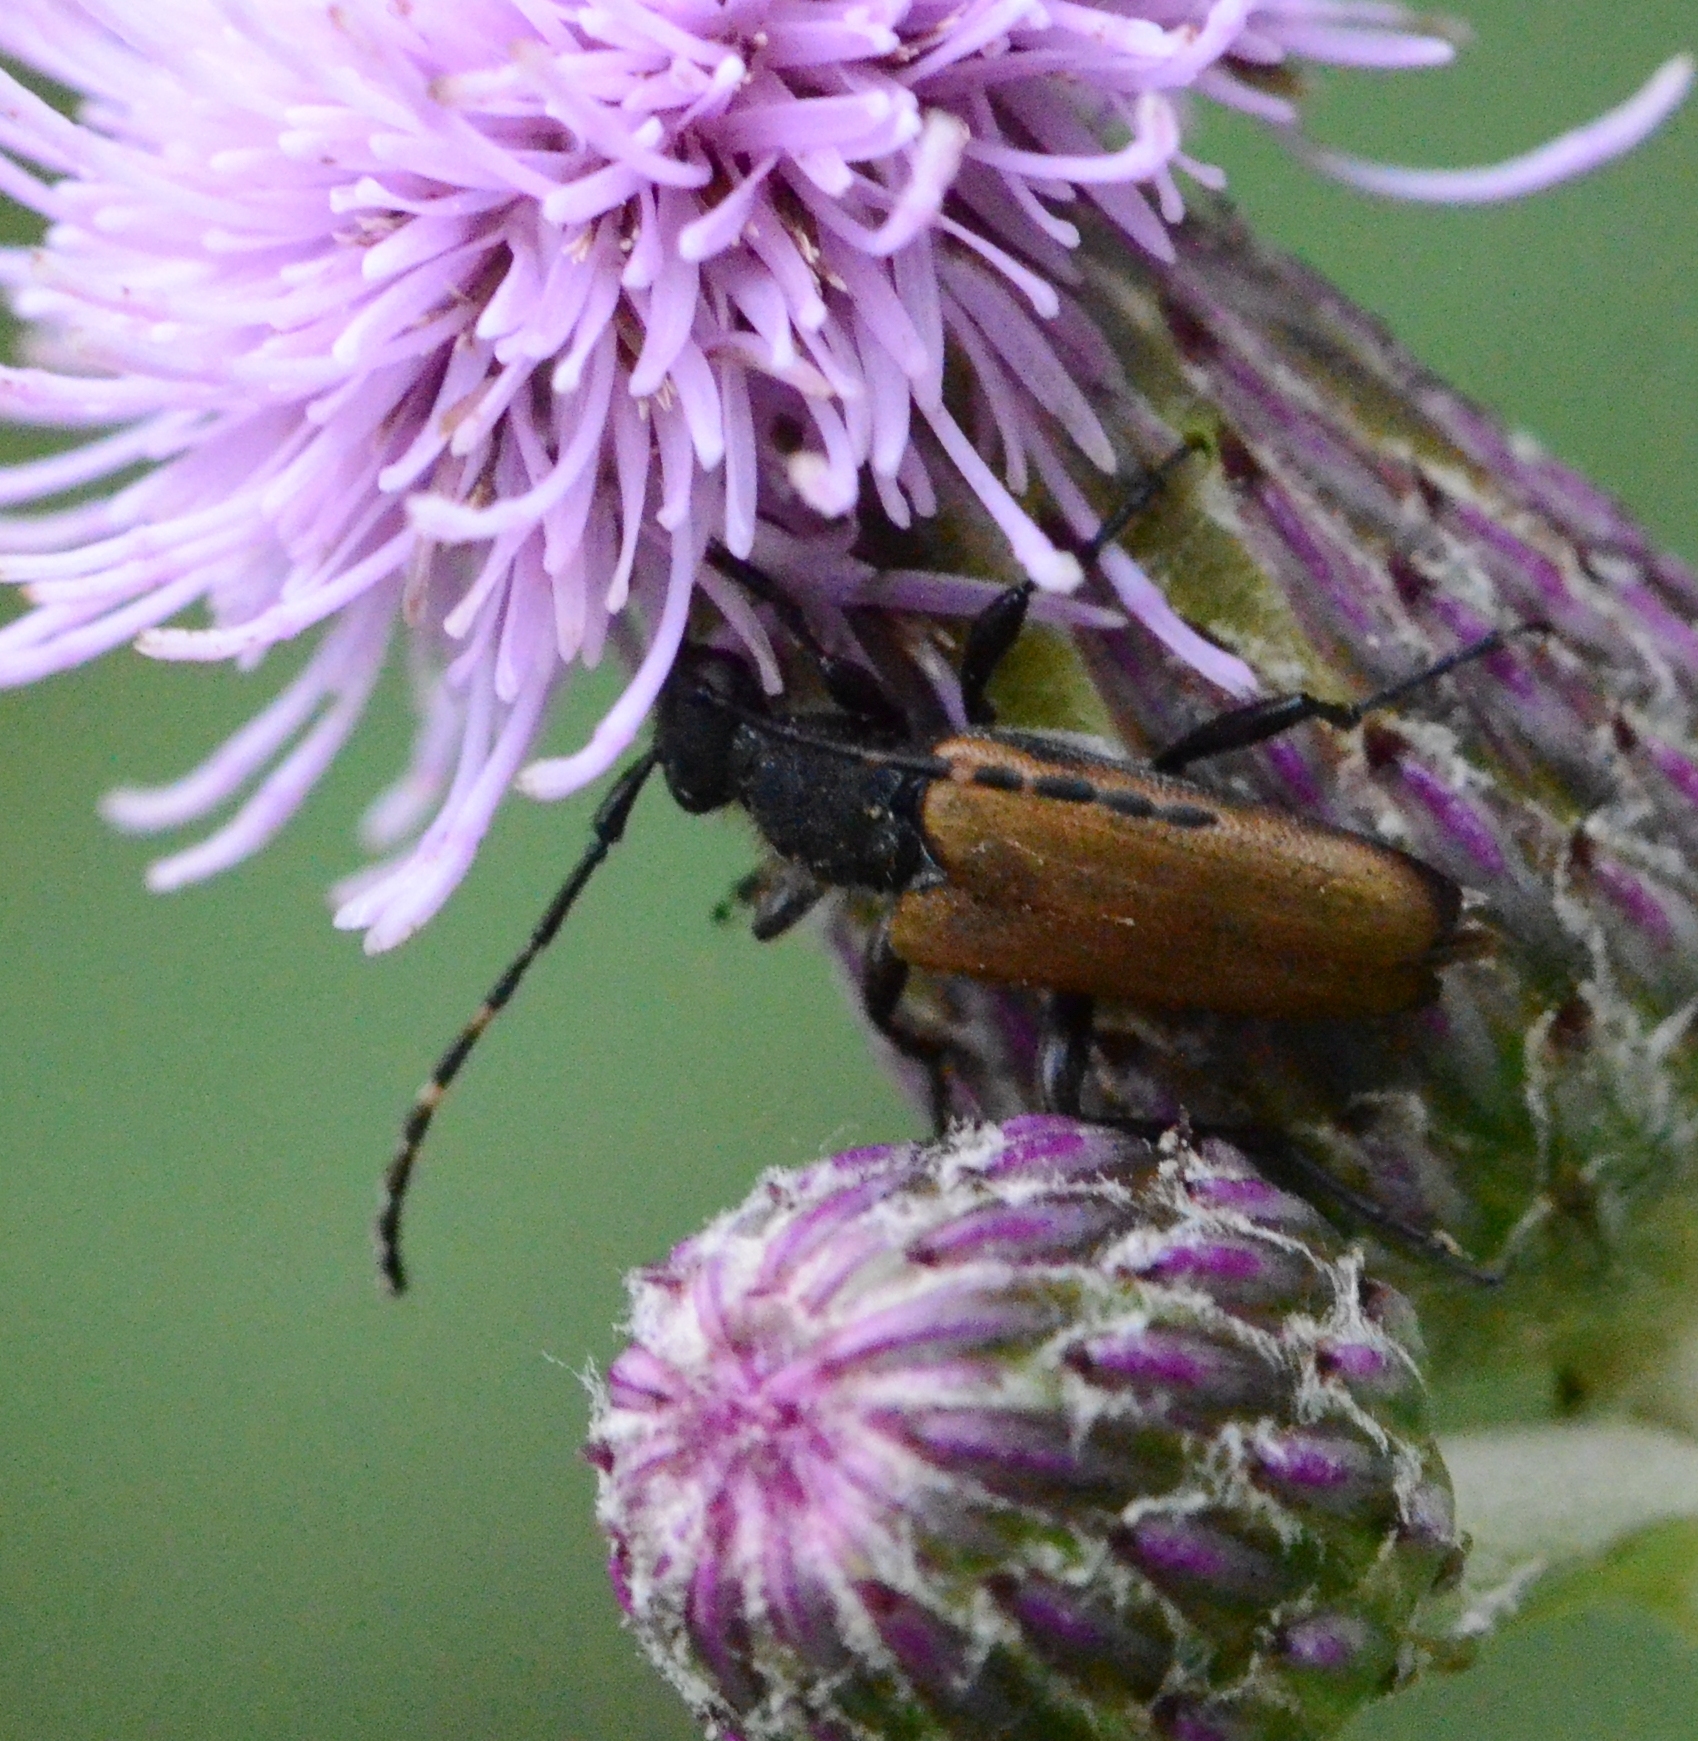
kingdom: Animalia
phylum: Arthropoda
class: Insecta
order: Coleoptera
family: Cerambycidae
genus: Paracorymbia
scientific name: Paracorymbia maculicornis
